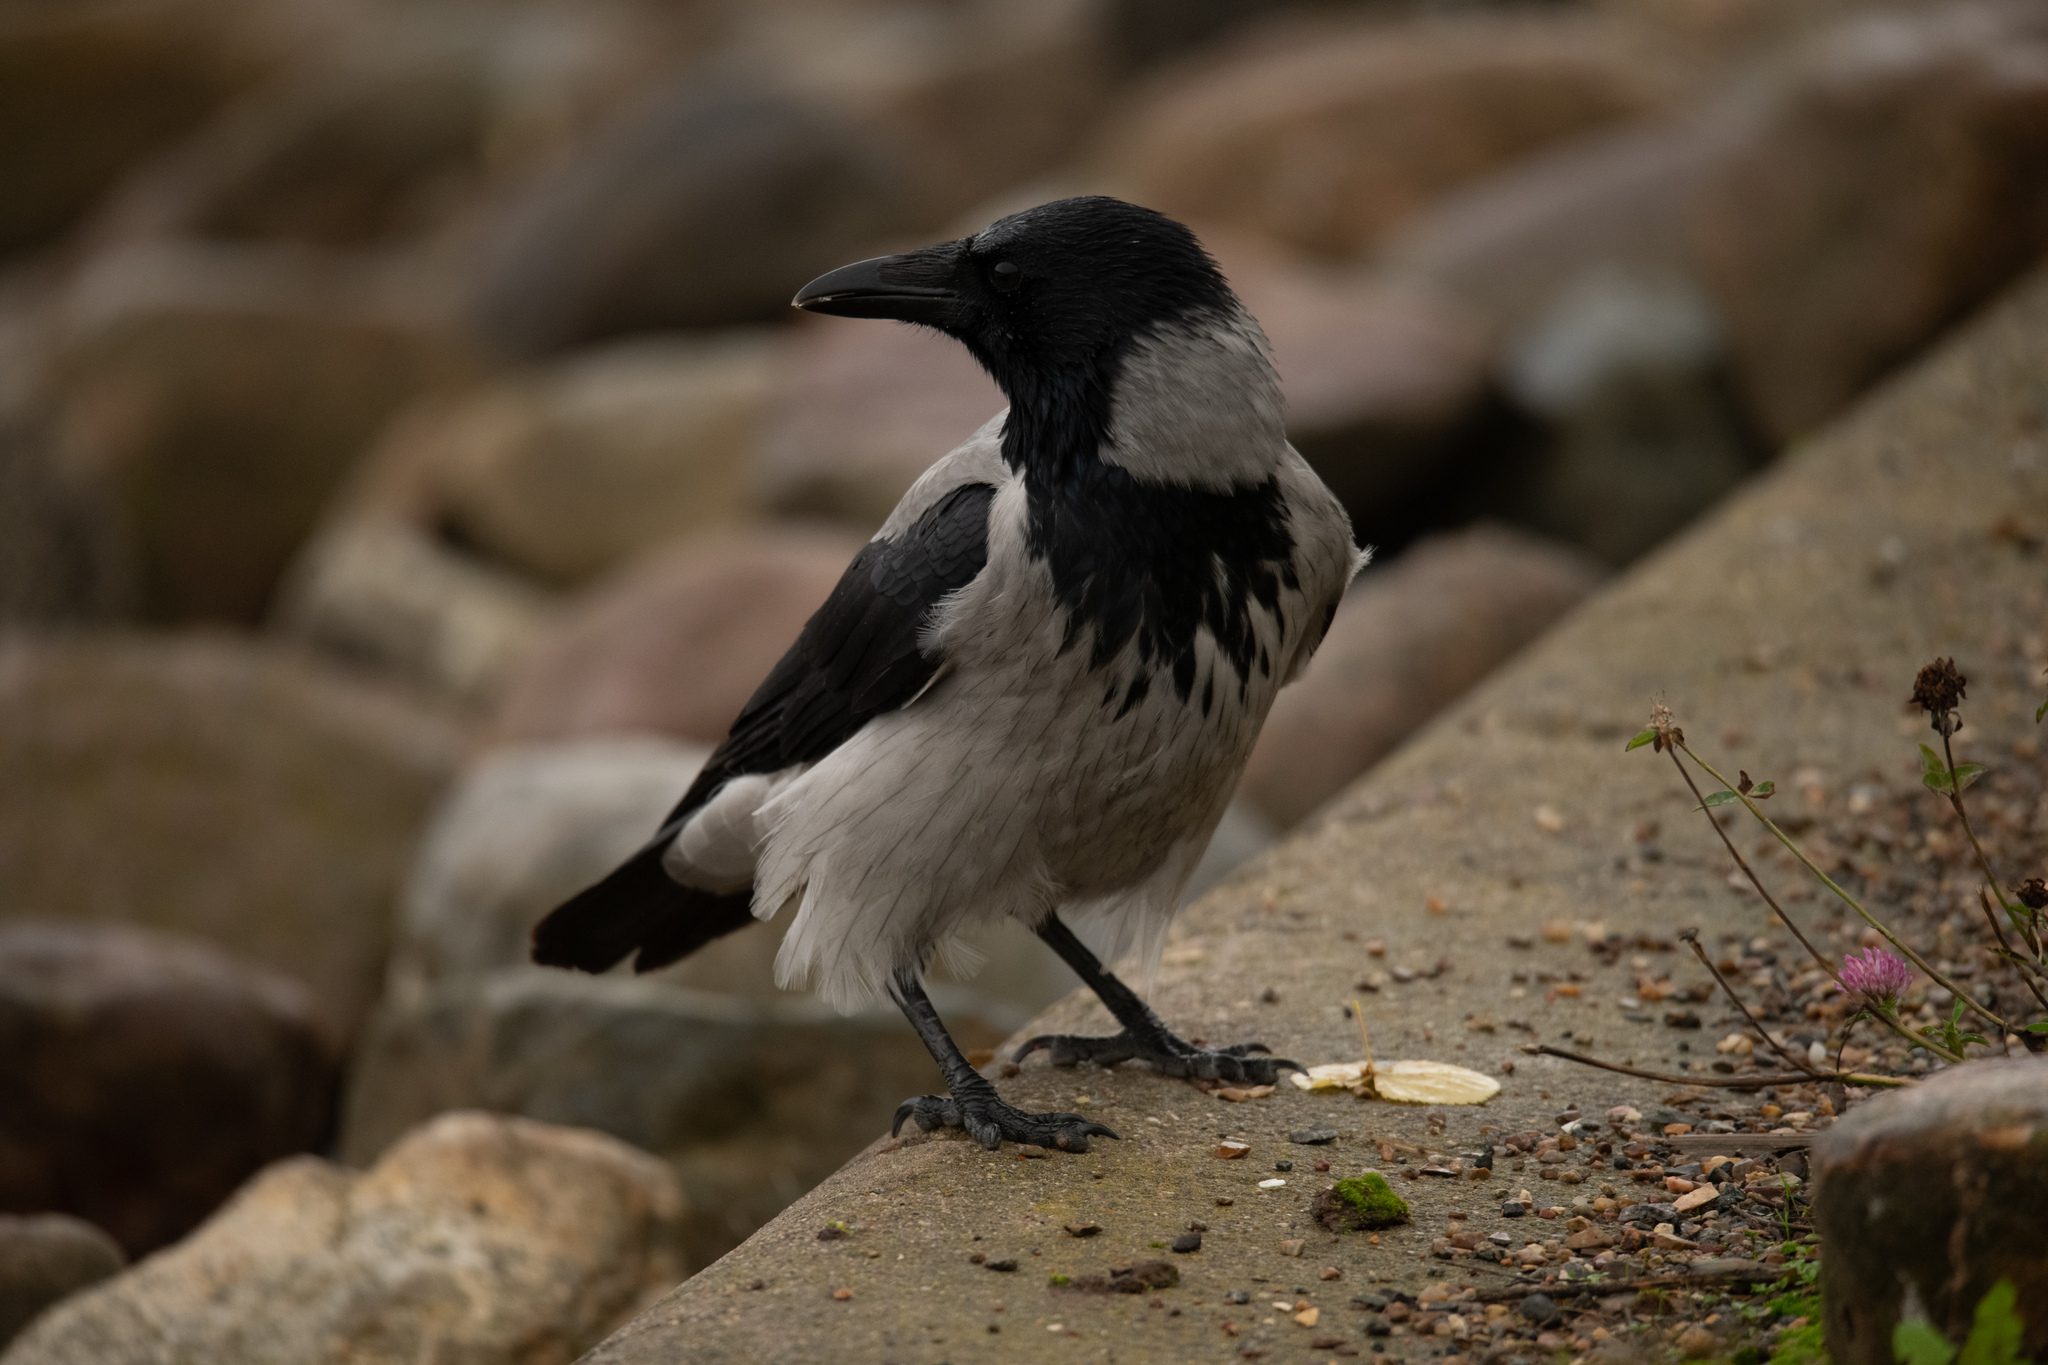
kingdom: Animalia
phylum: Chordata
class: Aves
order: Passeriformes
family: Corvidae
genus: Corvus
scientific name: Corvus cornix
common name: Hooded crow
